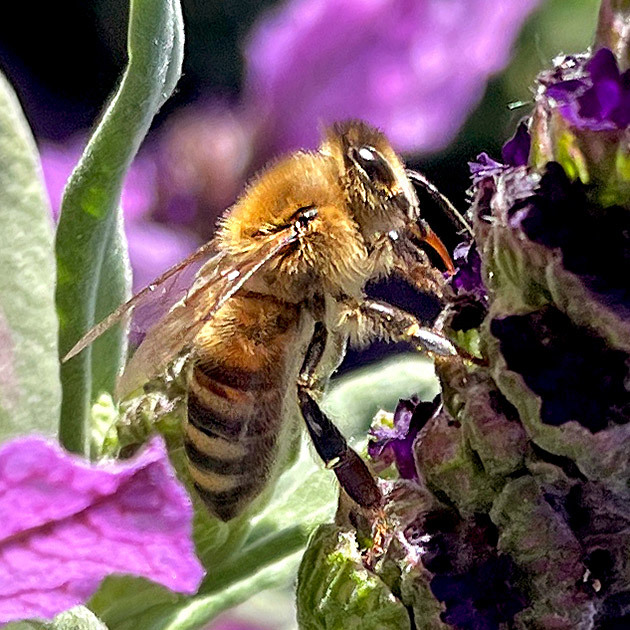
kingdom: Animalia
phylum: Arthropoda
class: Insecta
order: Hymenoptera
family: Apidae
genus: Apis
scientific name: Apis mellifera
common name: Honey bee
